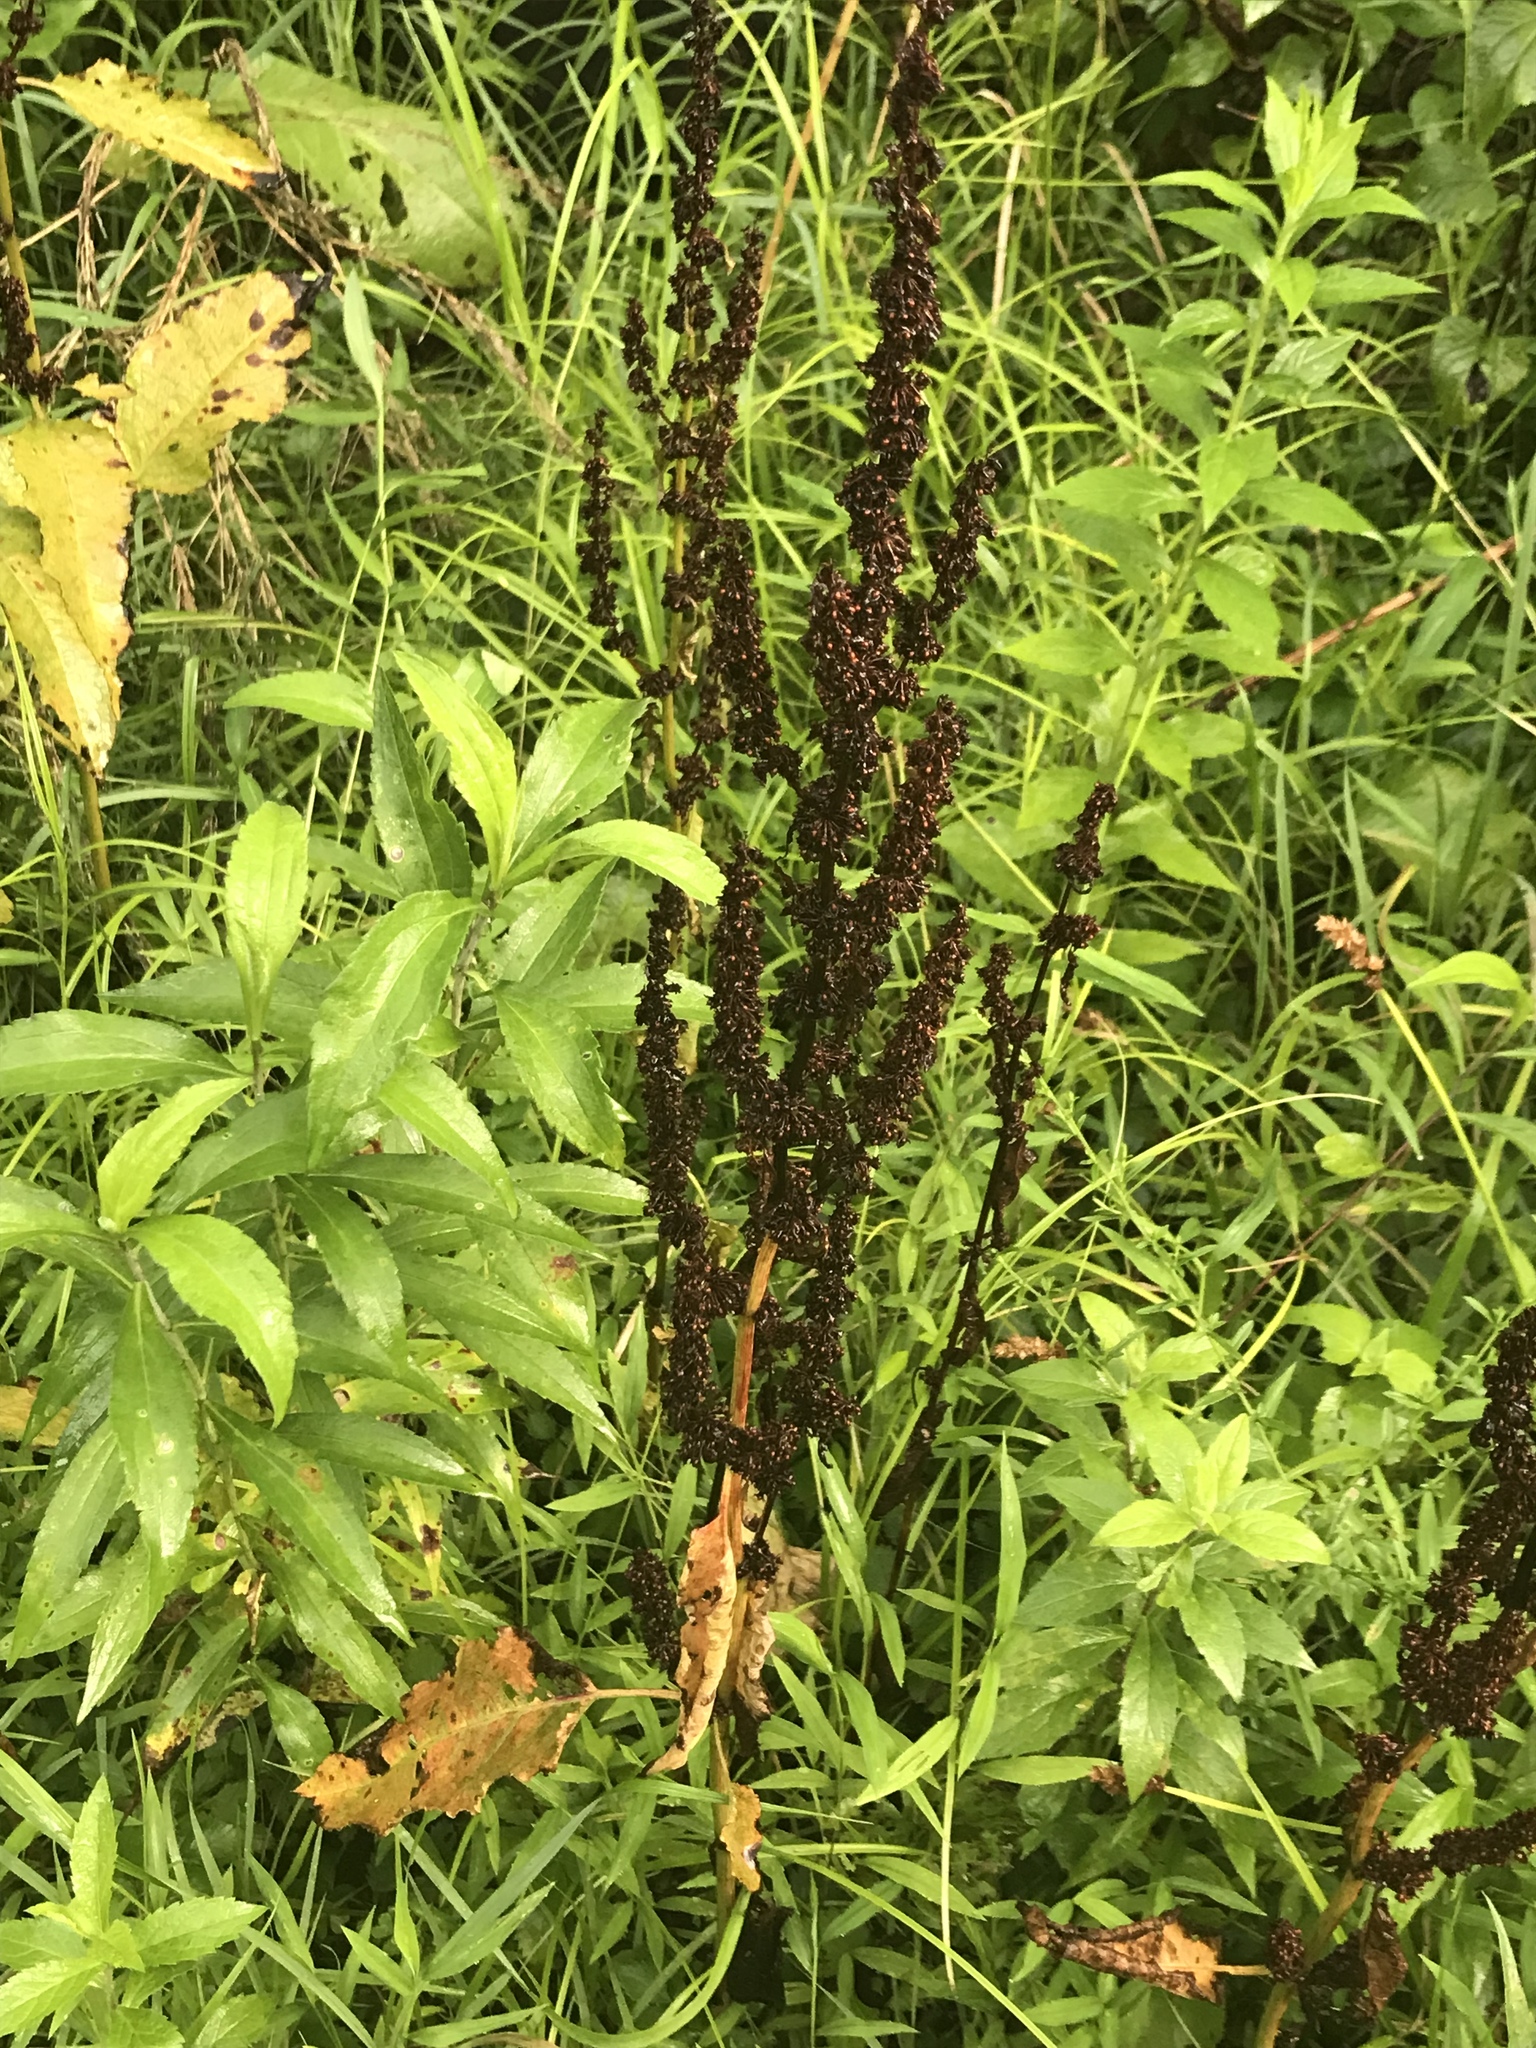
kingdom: Plantae
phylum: Tracheophyta
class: Magnoliopsida
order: Caryophyllales
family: Polygonaceae
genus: Rumex
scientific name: Rumex crispus
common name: Curled dock
